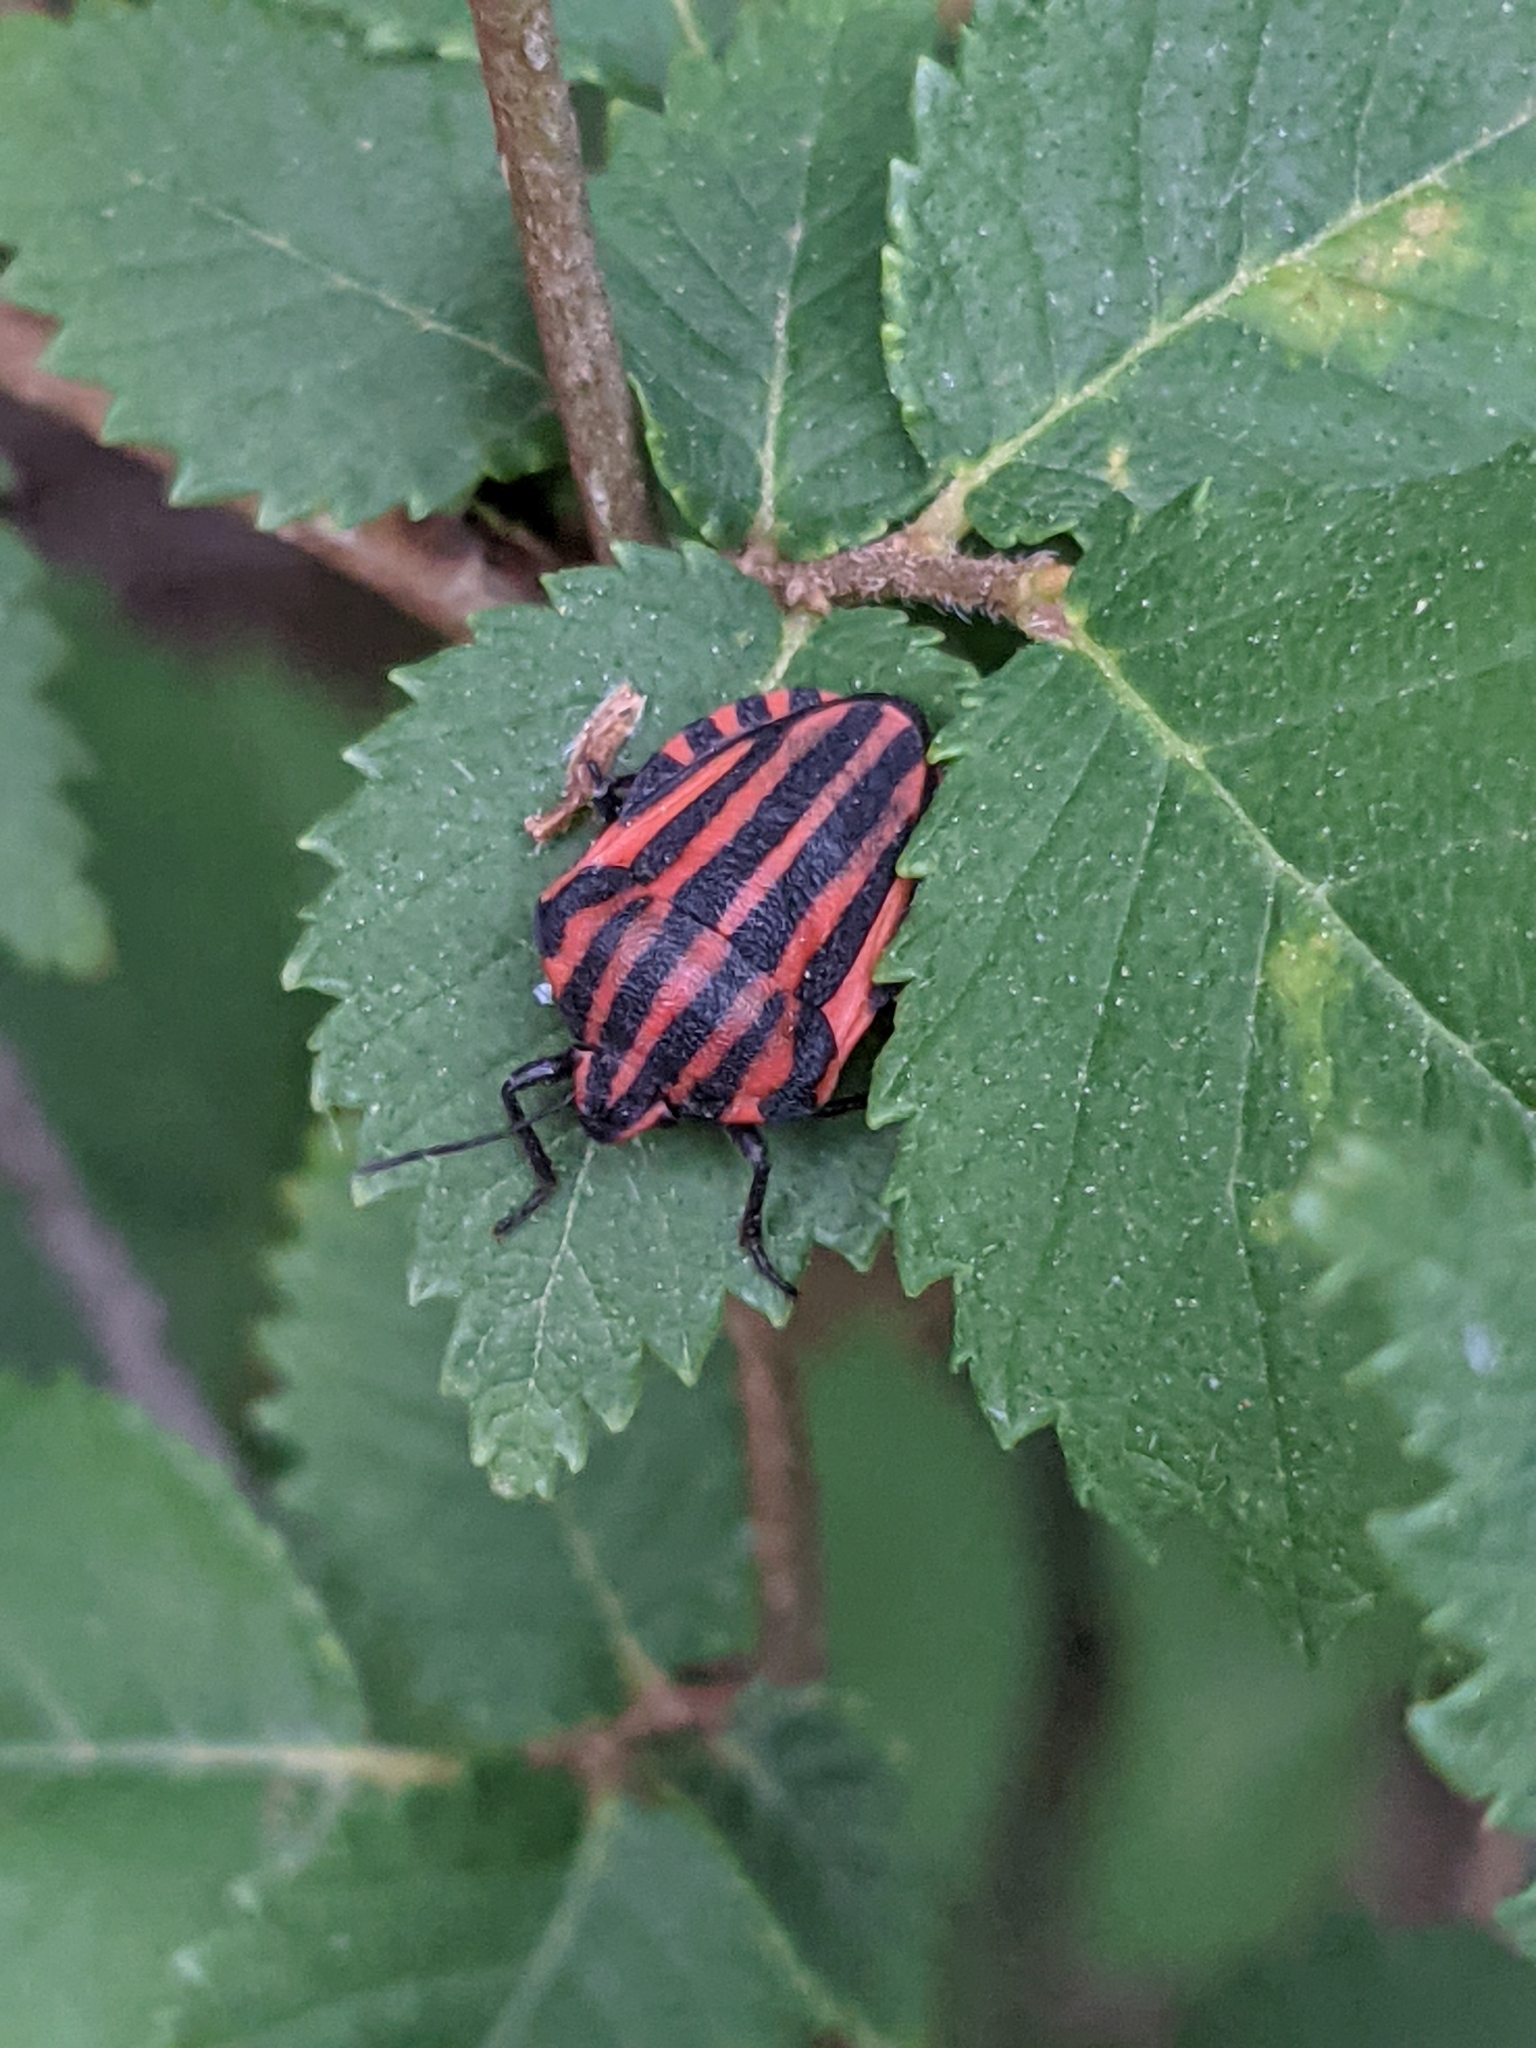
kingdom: Animalia
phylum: Arthropoda
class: Insecta
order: Hemiptera
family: Pentatomidae
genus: Graphosoma
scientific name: Graphosoma italicum
